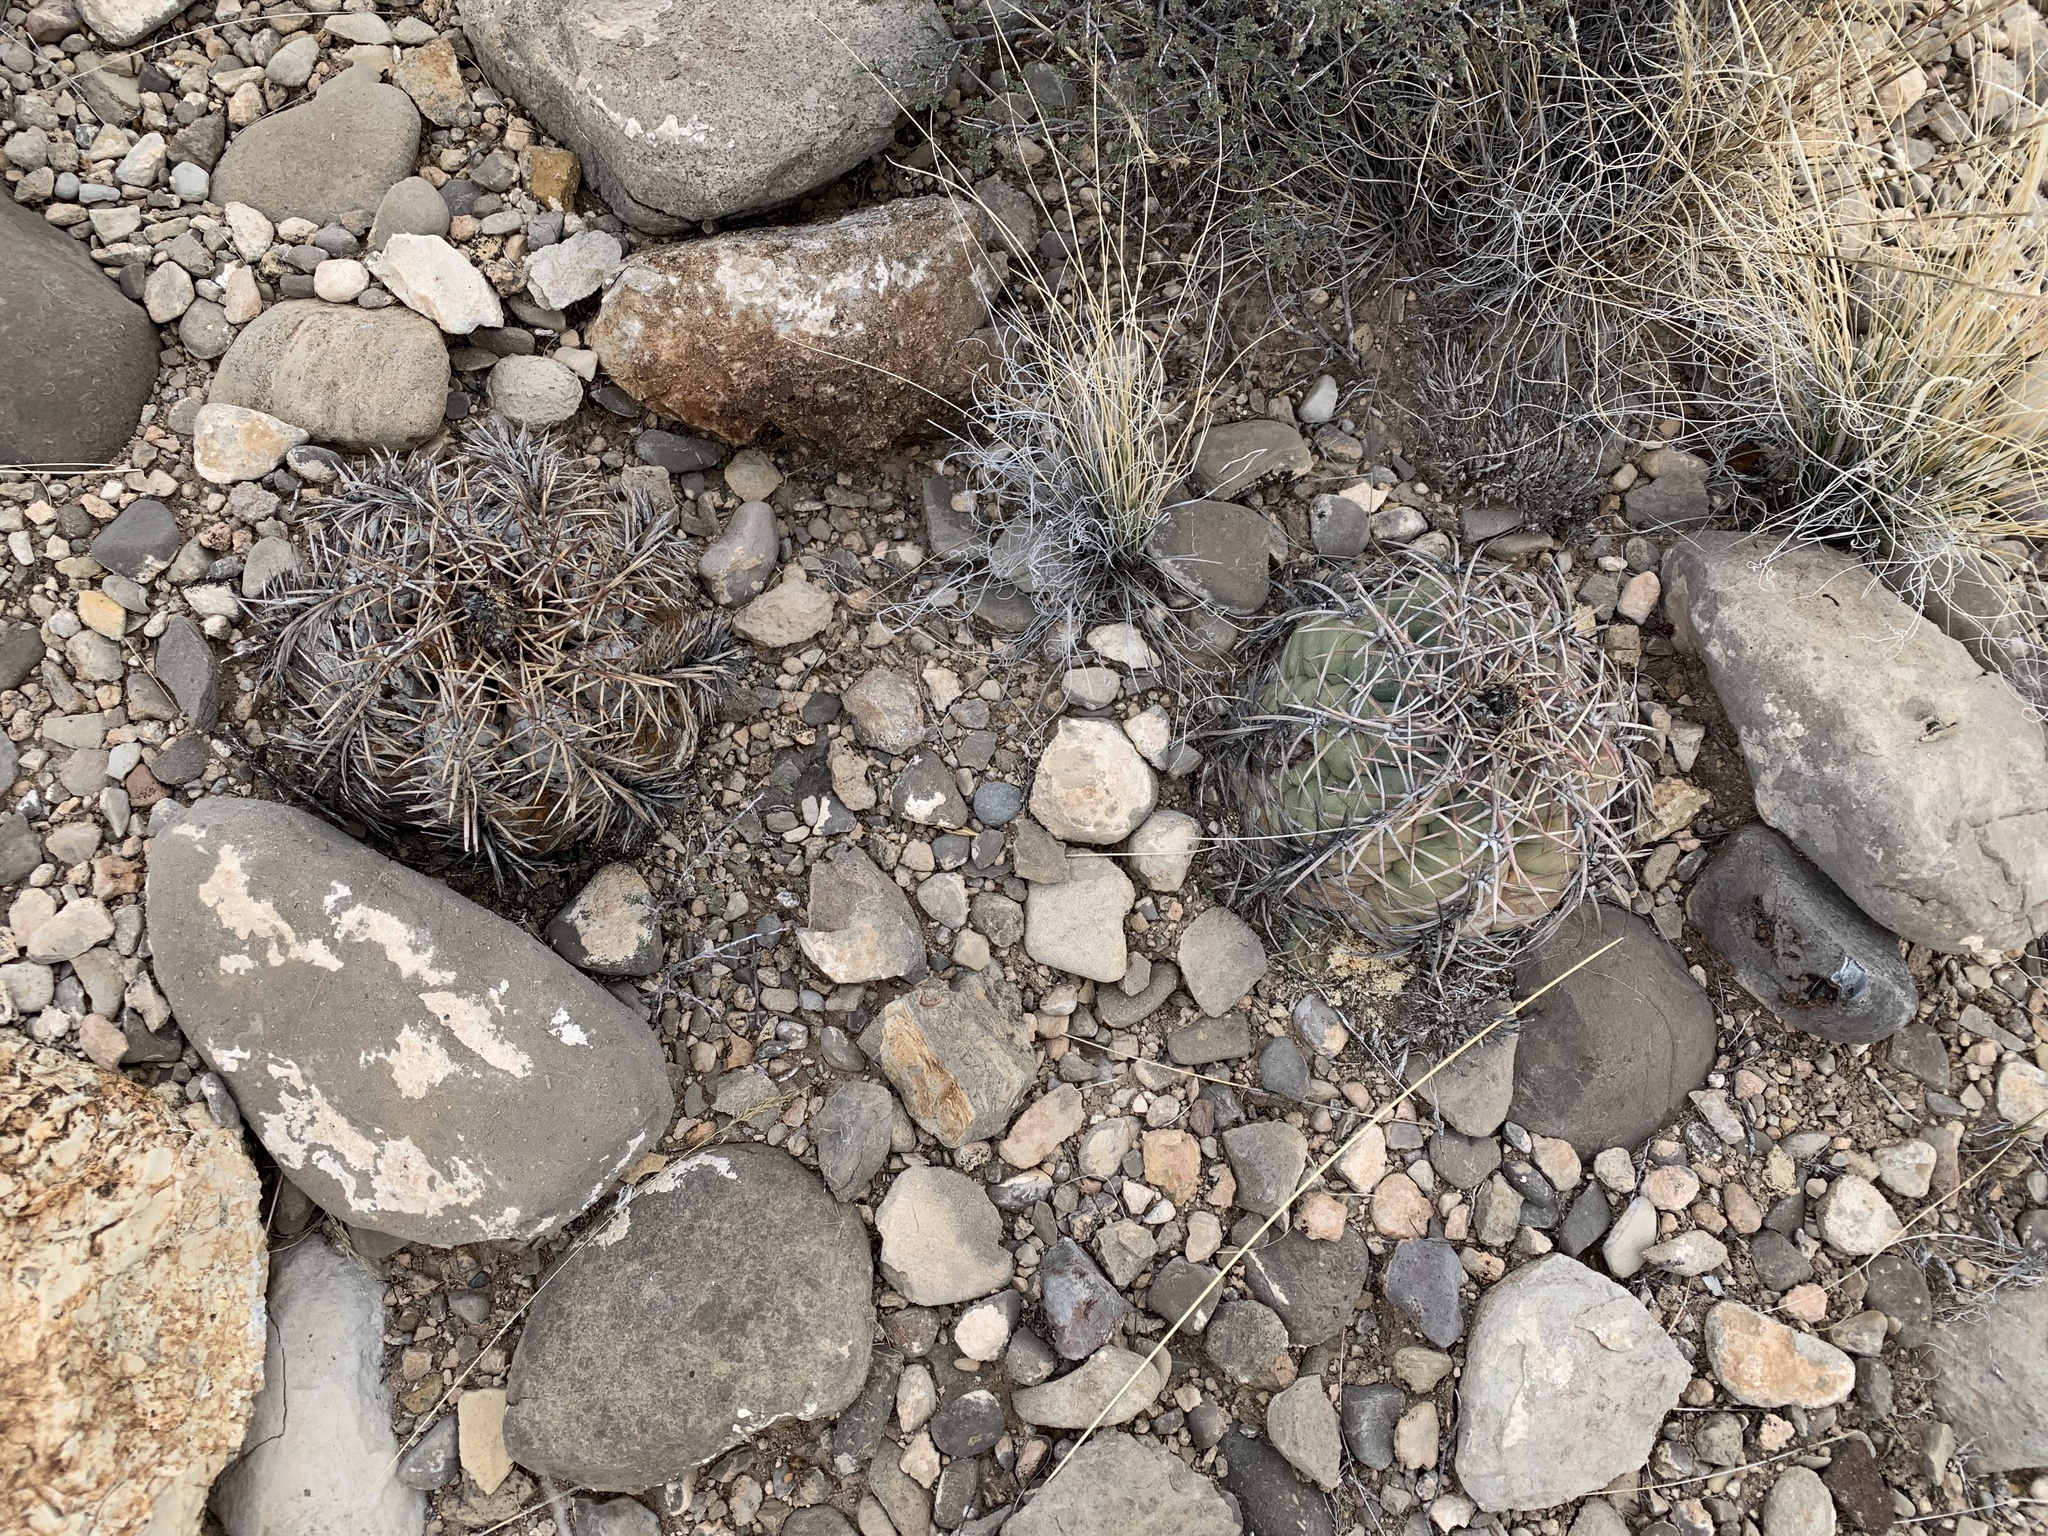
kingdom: Plantae
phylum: Tracheophyta
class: Magnoliopsida
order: Caryophyllales
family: Cactaceae
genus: Echinocactus
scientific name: Echinocactus horizonthalonius
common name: Devilshead
